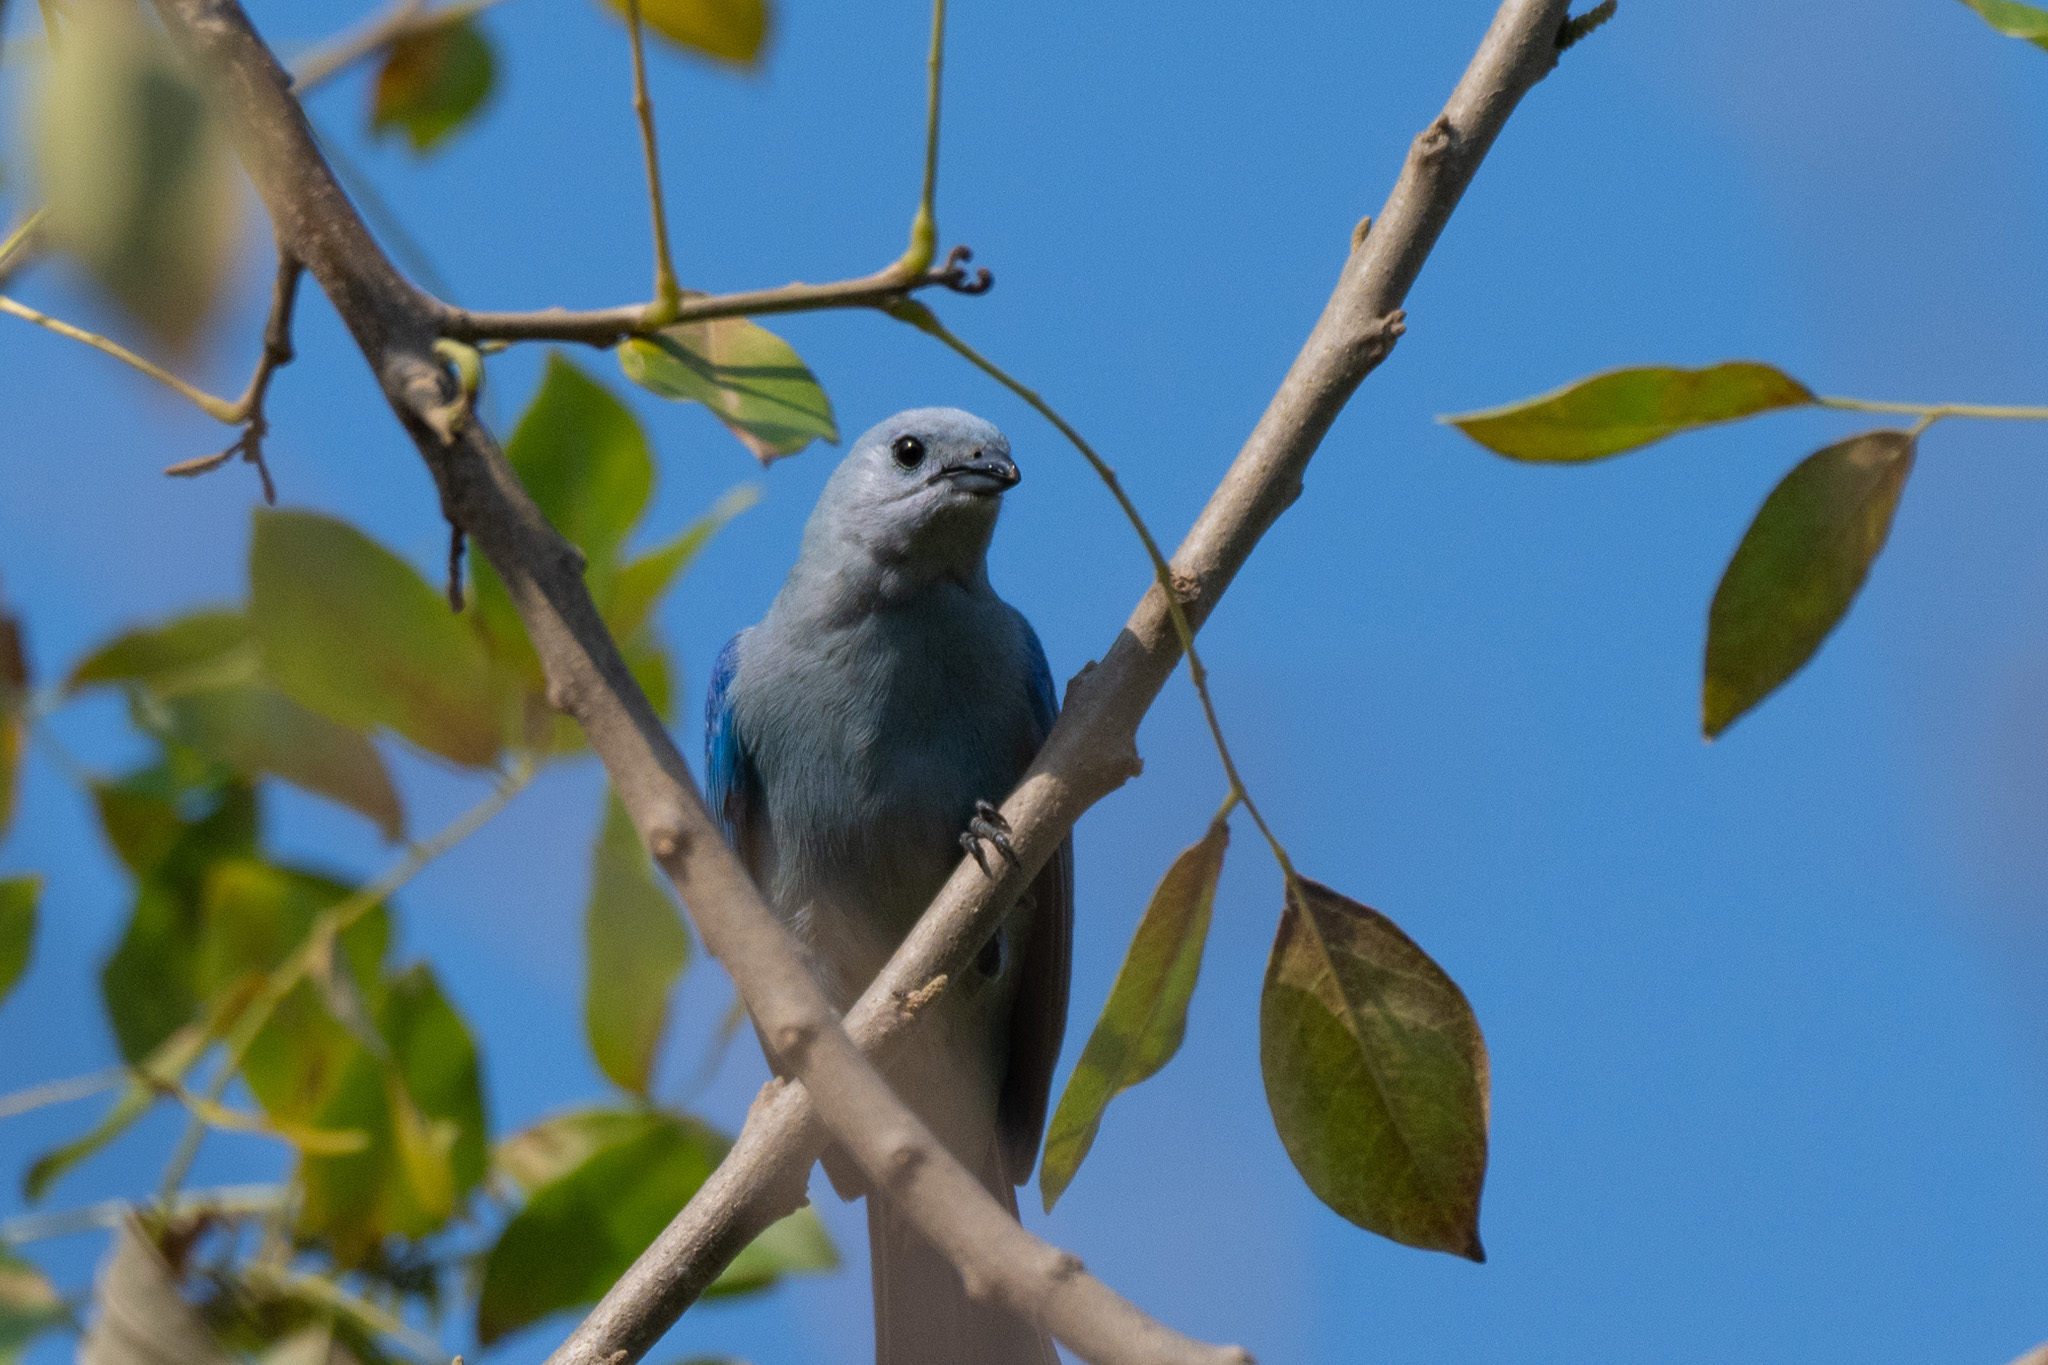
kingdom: Animalia
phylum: Chordata
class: Aves
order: Passeriformes
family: Thraupidae
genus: Thraupis
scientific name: Thraupis episcopus
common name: Blue-grey tanager
